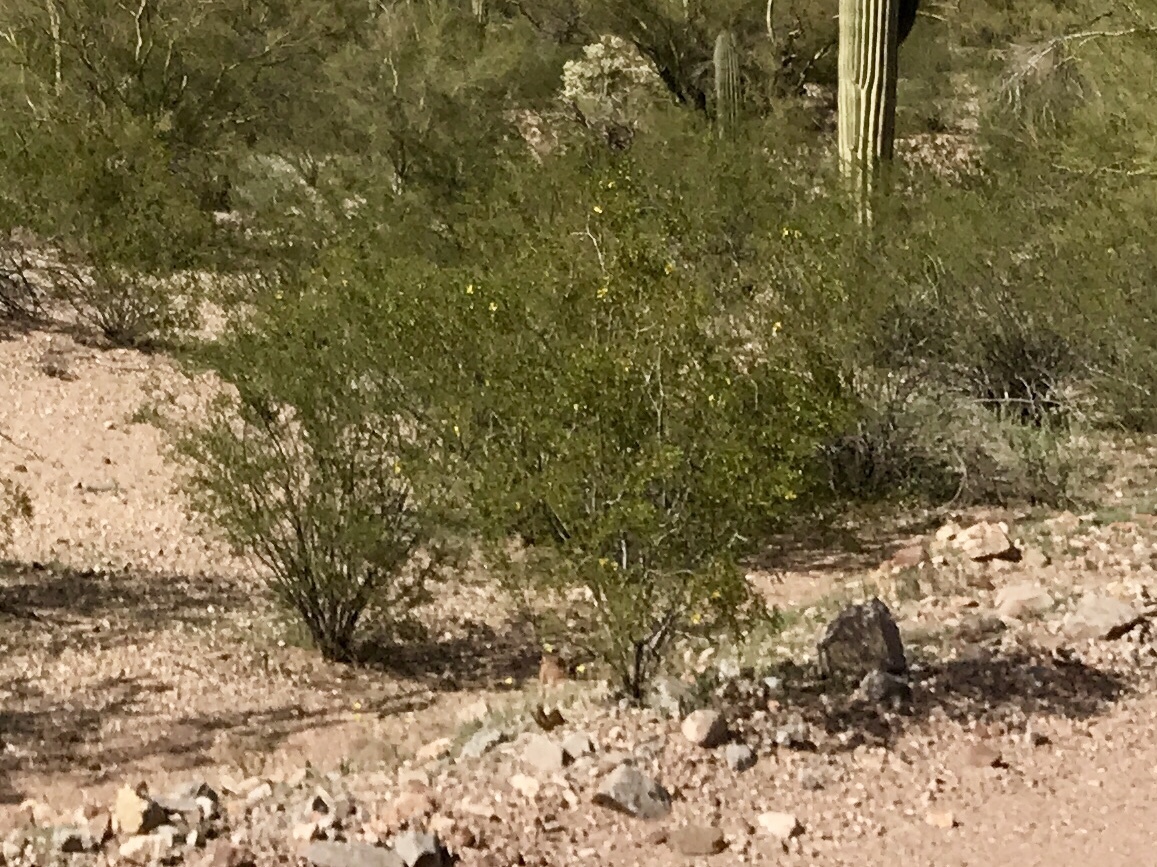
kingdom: Plantae
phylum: Tracheophyta
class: Magnoliopsida
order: Zygophyllales
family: Zygophyllaceae
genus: Larrea
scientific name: Larrea tridentata
